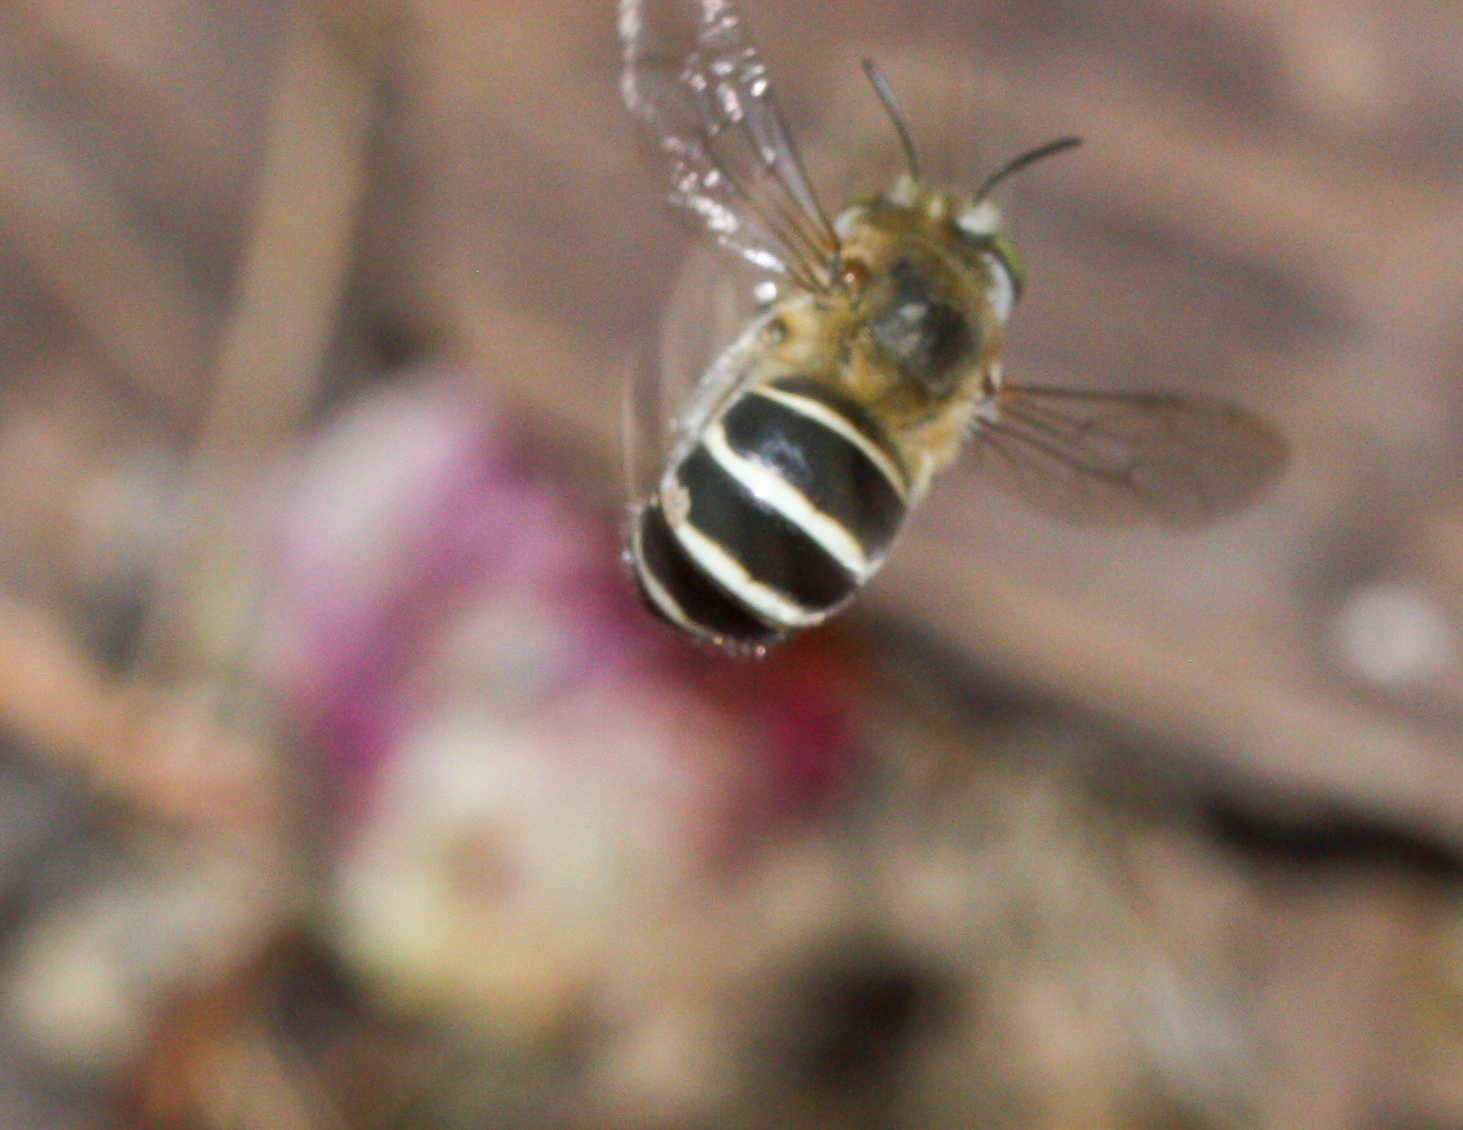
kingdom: Animalia
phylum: Arthropoda
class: Insecta
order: Hymenoptera
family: Apidae
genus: Anthophora
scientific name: Anthophora californica
